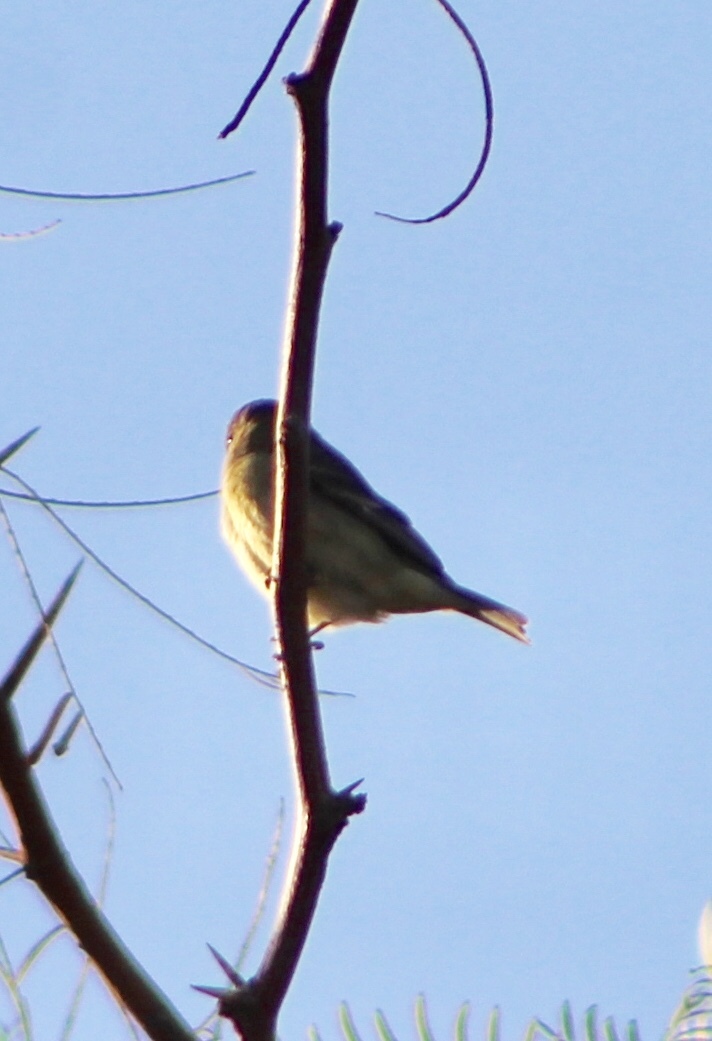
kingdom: Animalia
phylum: Chordata
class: Aves
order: Passeriformes
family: Fringillidae
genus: Spinus
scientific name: Spinus psaltria
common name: Lesser goldfinch
